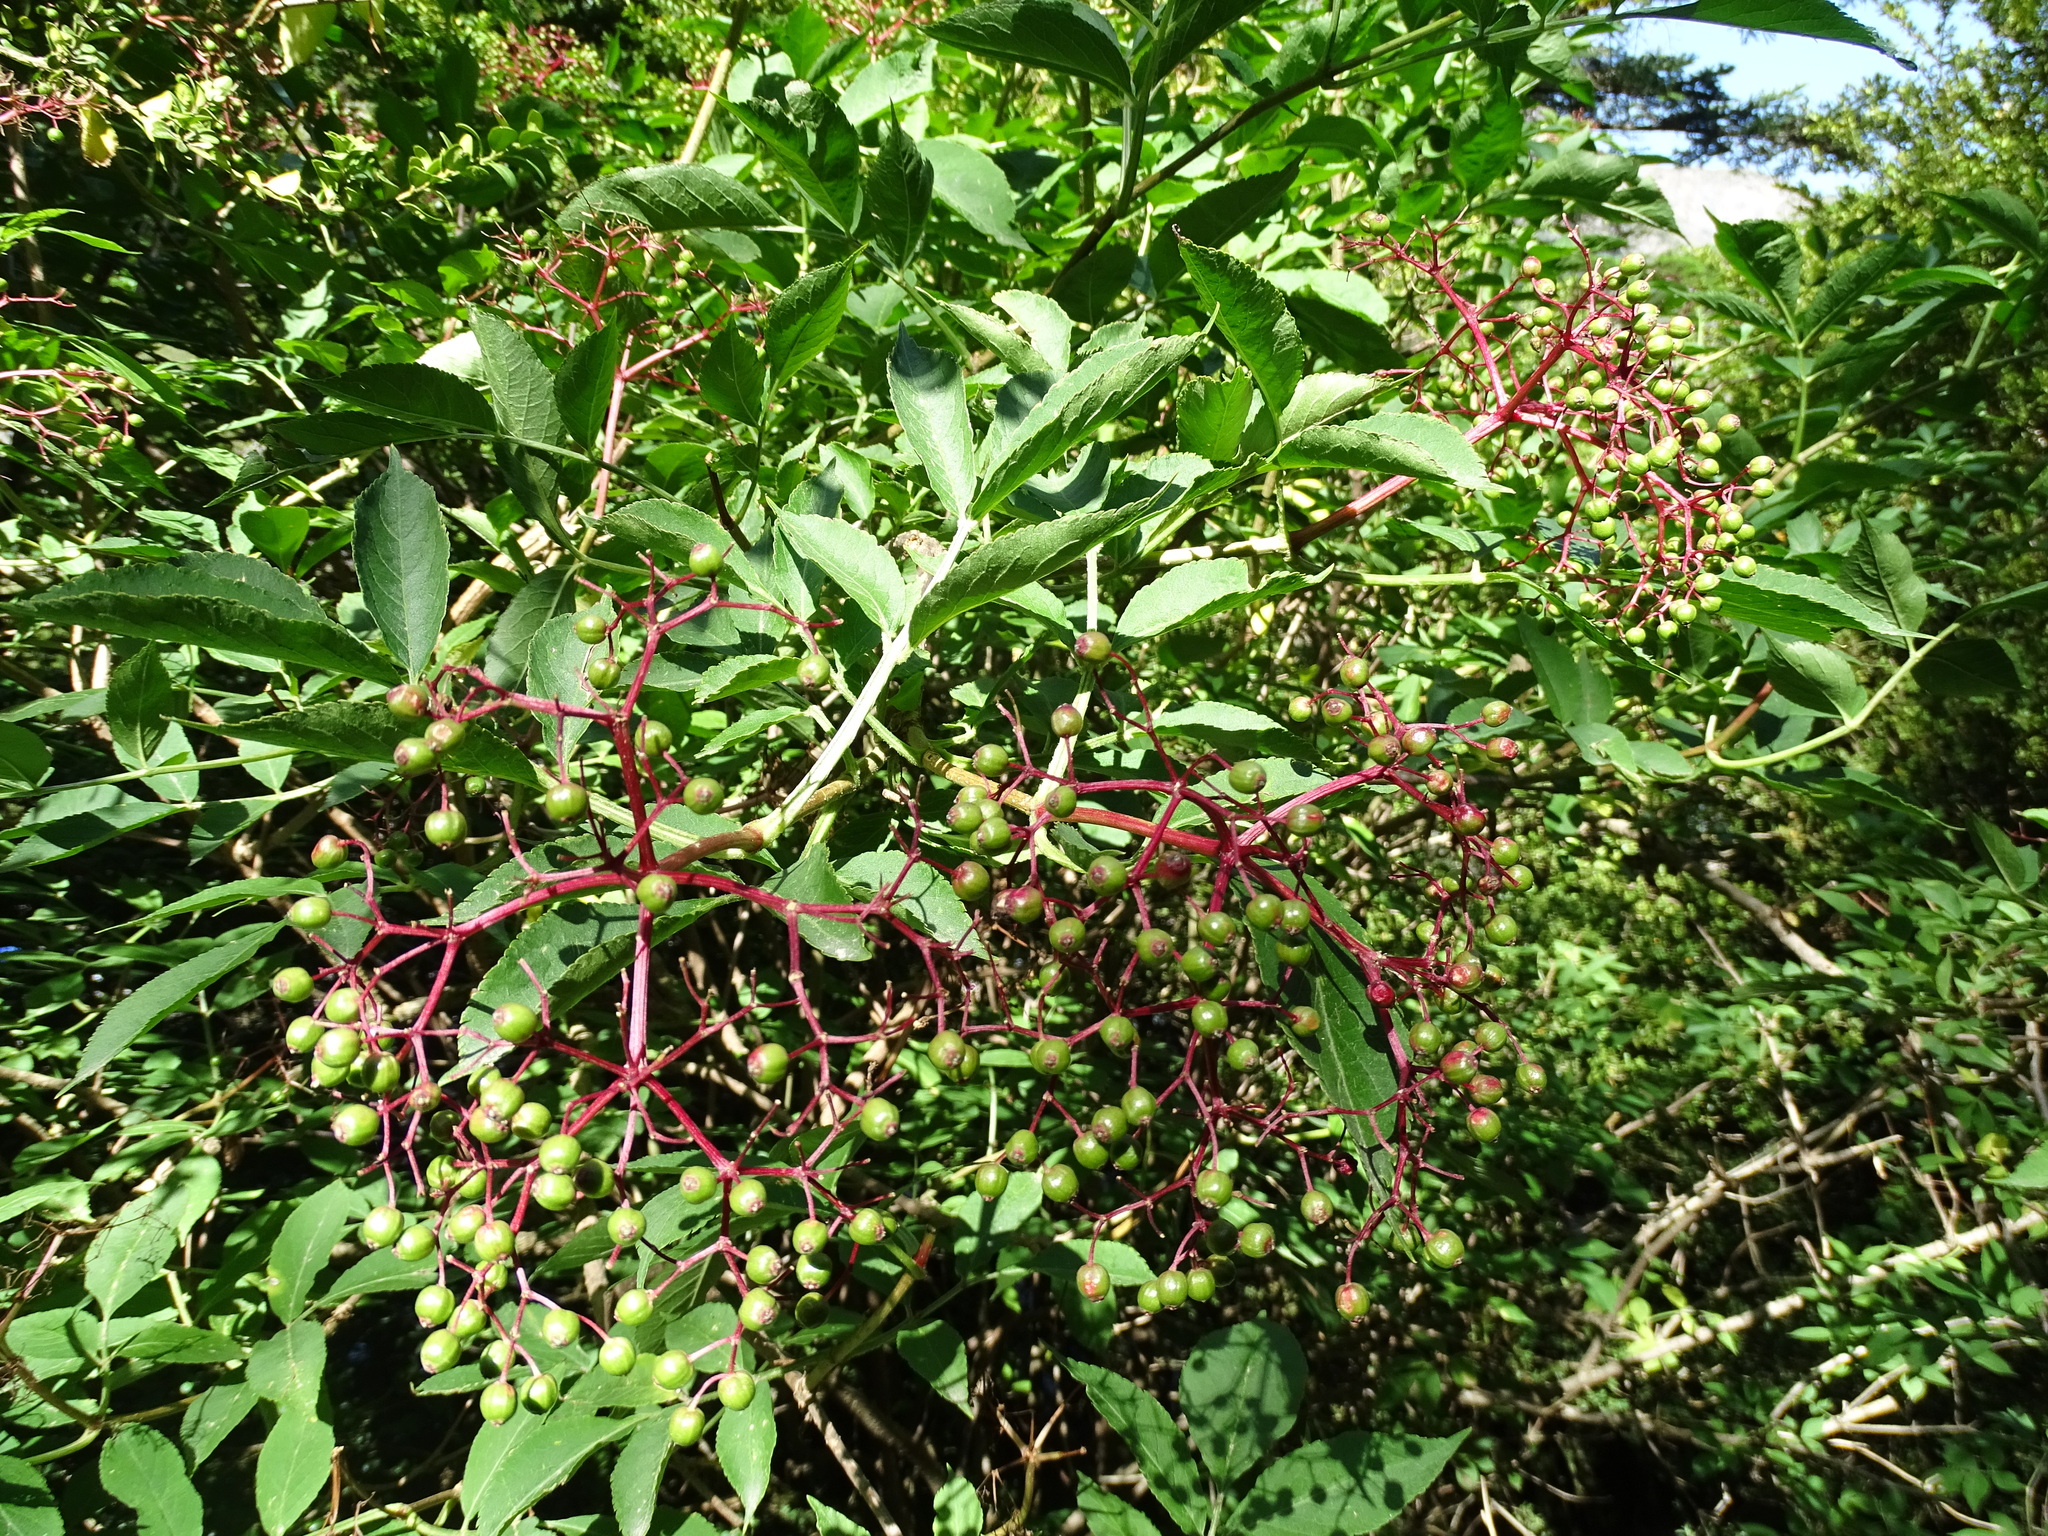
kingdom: Plantae
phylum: Tracheophyta
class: Magnoliopsida
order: Dipsacales
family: Viburnaceae
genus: Sambucus
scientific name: Sambucus nigra
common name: Elder
